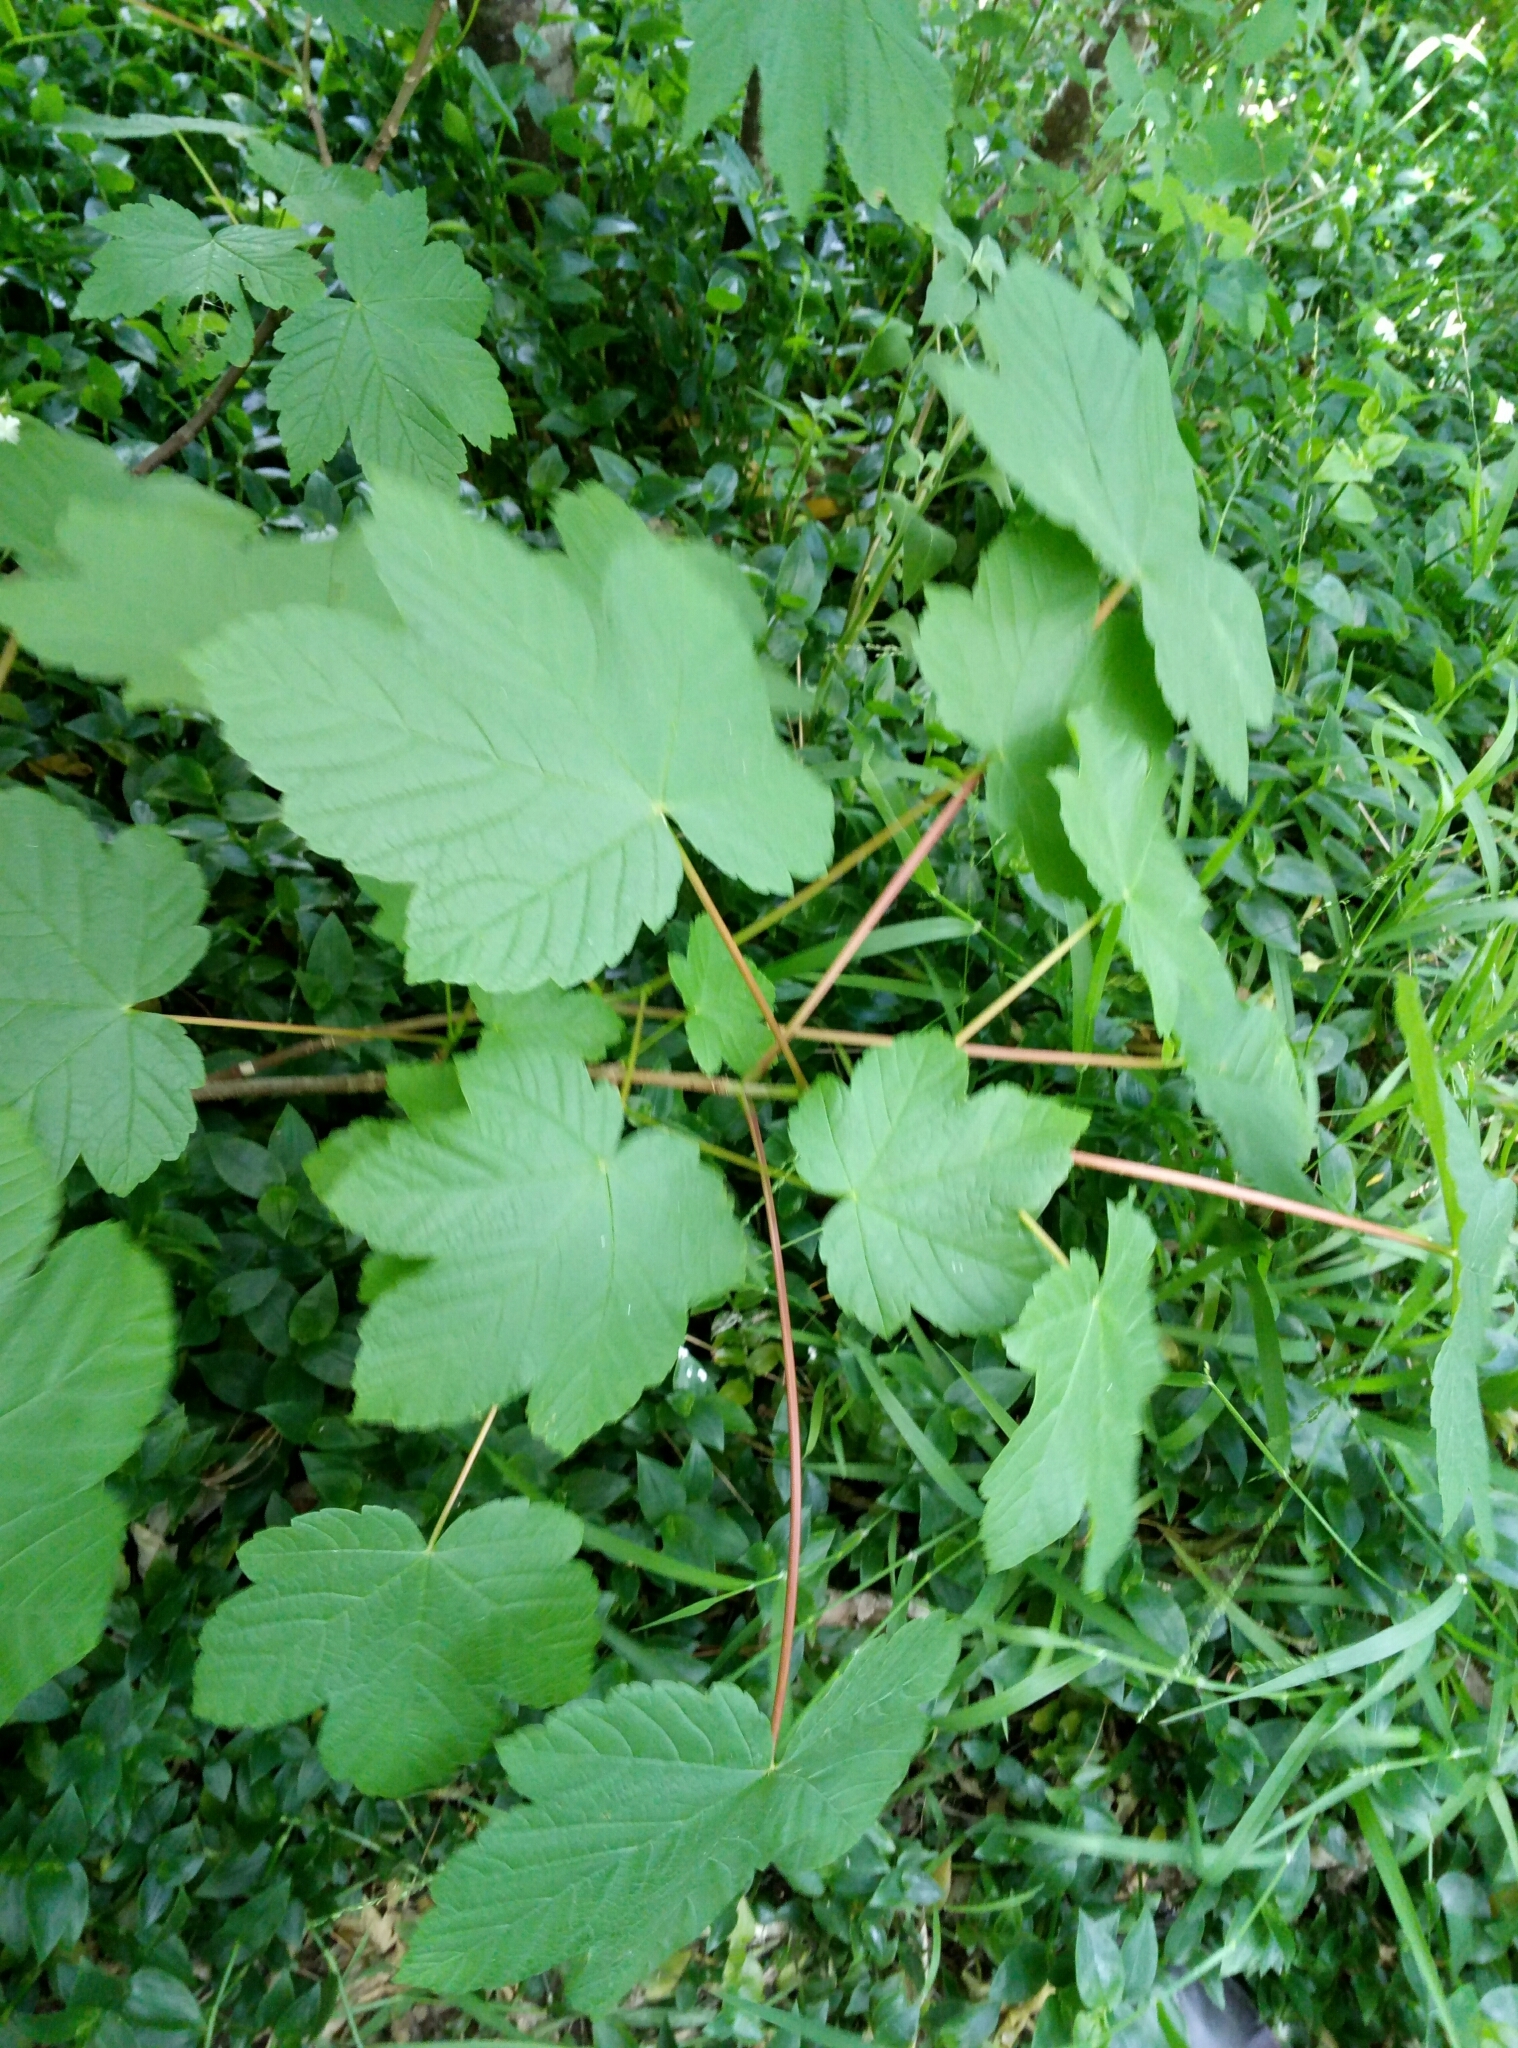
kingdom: Plantae
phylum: Tracheophyta
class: Magnoliopsida
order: Sapindales
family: Sapindaceae
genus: Acer
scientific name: Acer pseudoplatanus
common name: Sycamore
